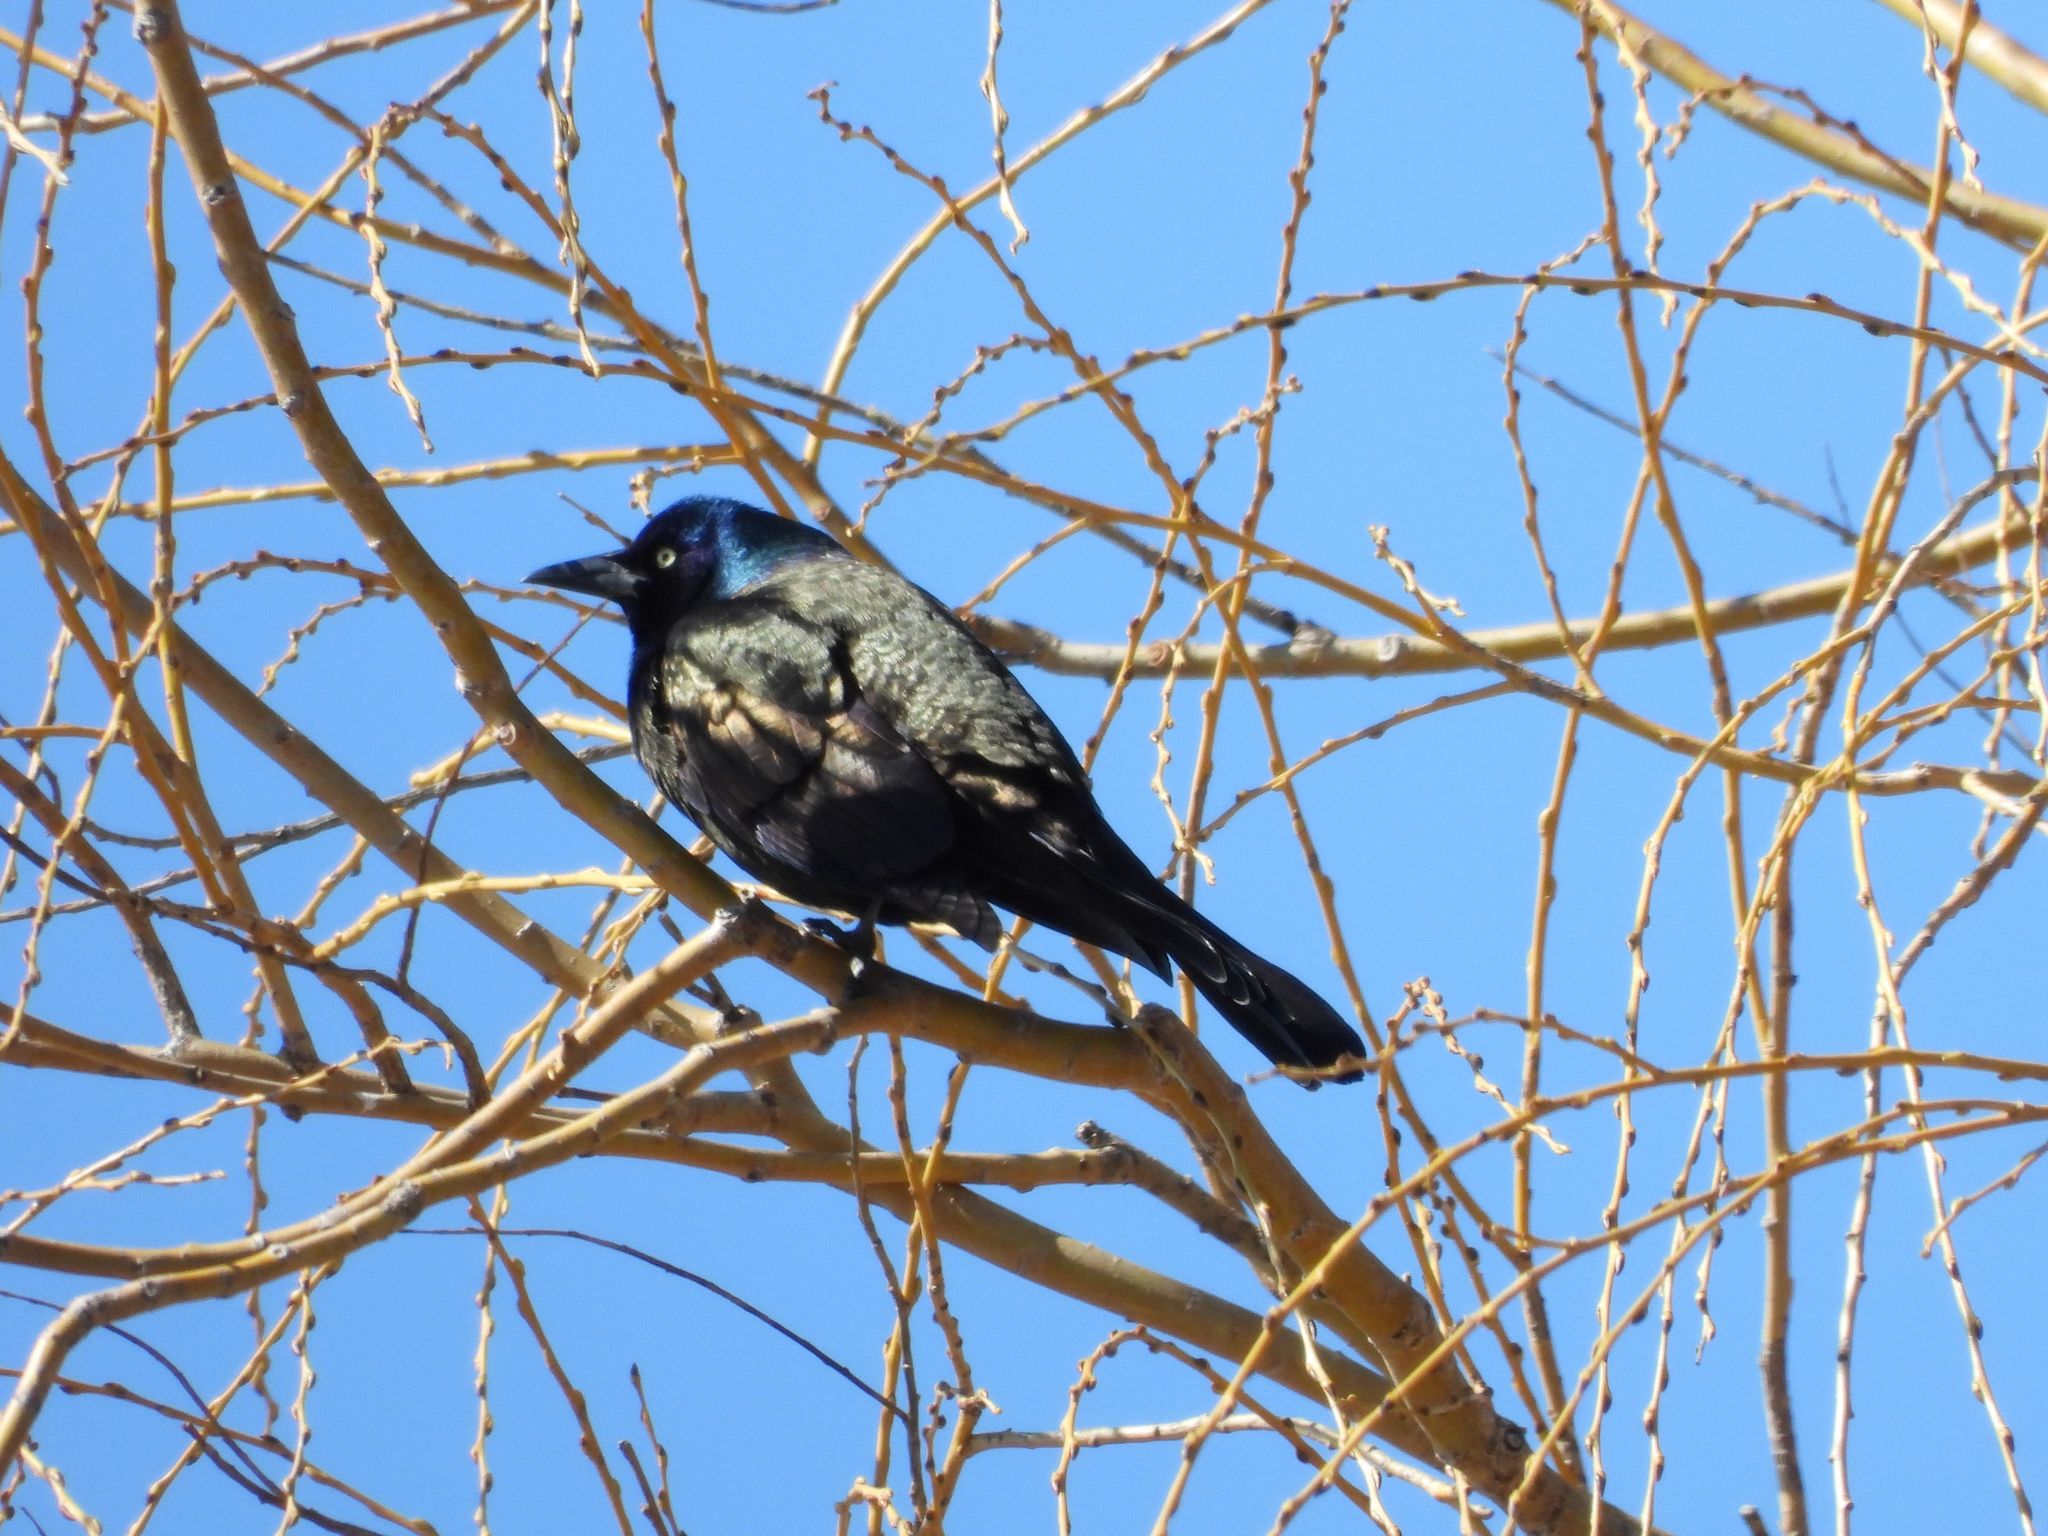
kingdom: Animalia
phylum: Chordata
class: Aves
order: Passeriformes
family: Icteridae
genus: Quiscalus
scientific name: Quiscalus quiscula
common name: Common grackle
